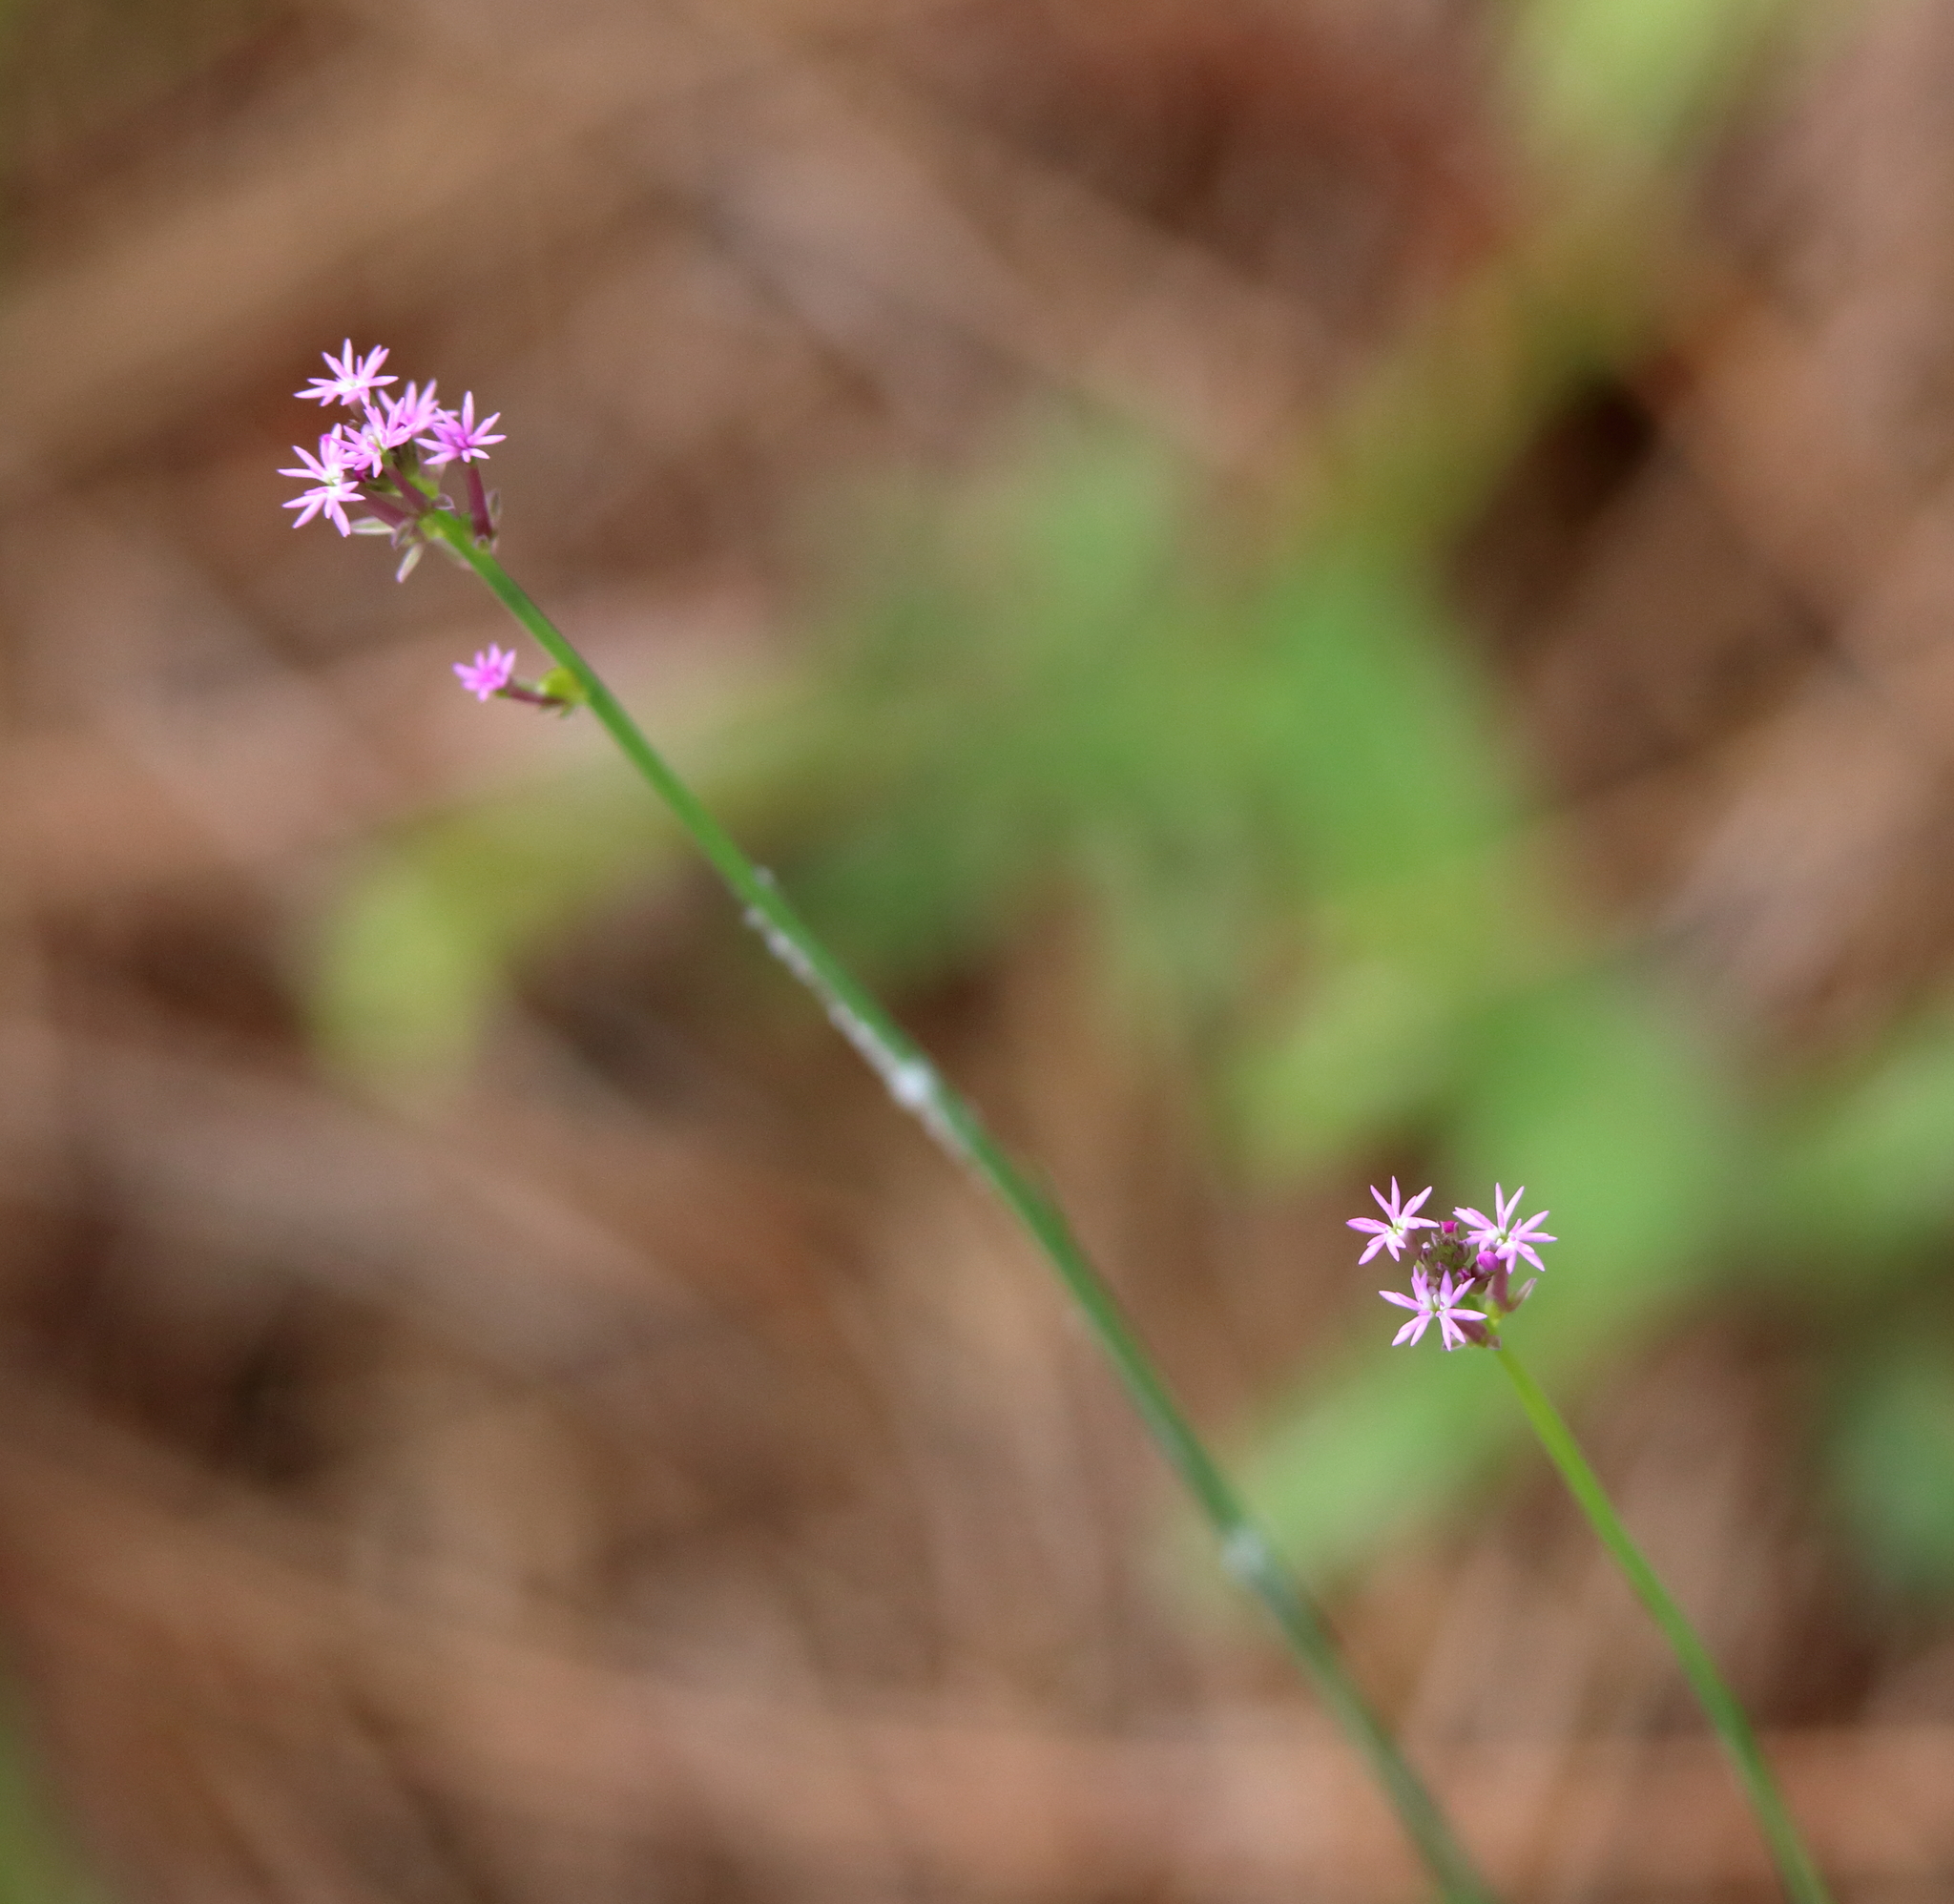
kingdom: Plantae
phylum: Tracheophyta
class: Magnoliopsida
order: Fabales
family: Polygalaceae
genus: Polygala
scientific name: Polygala incarnata
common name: Pink milkwort
